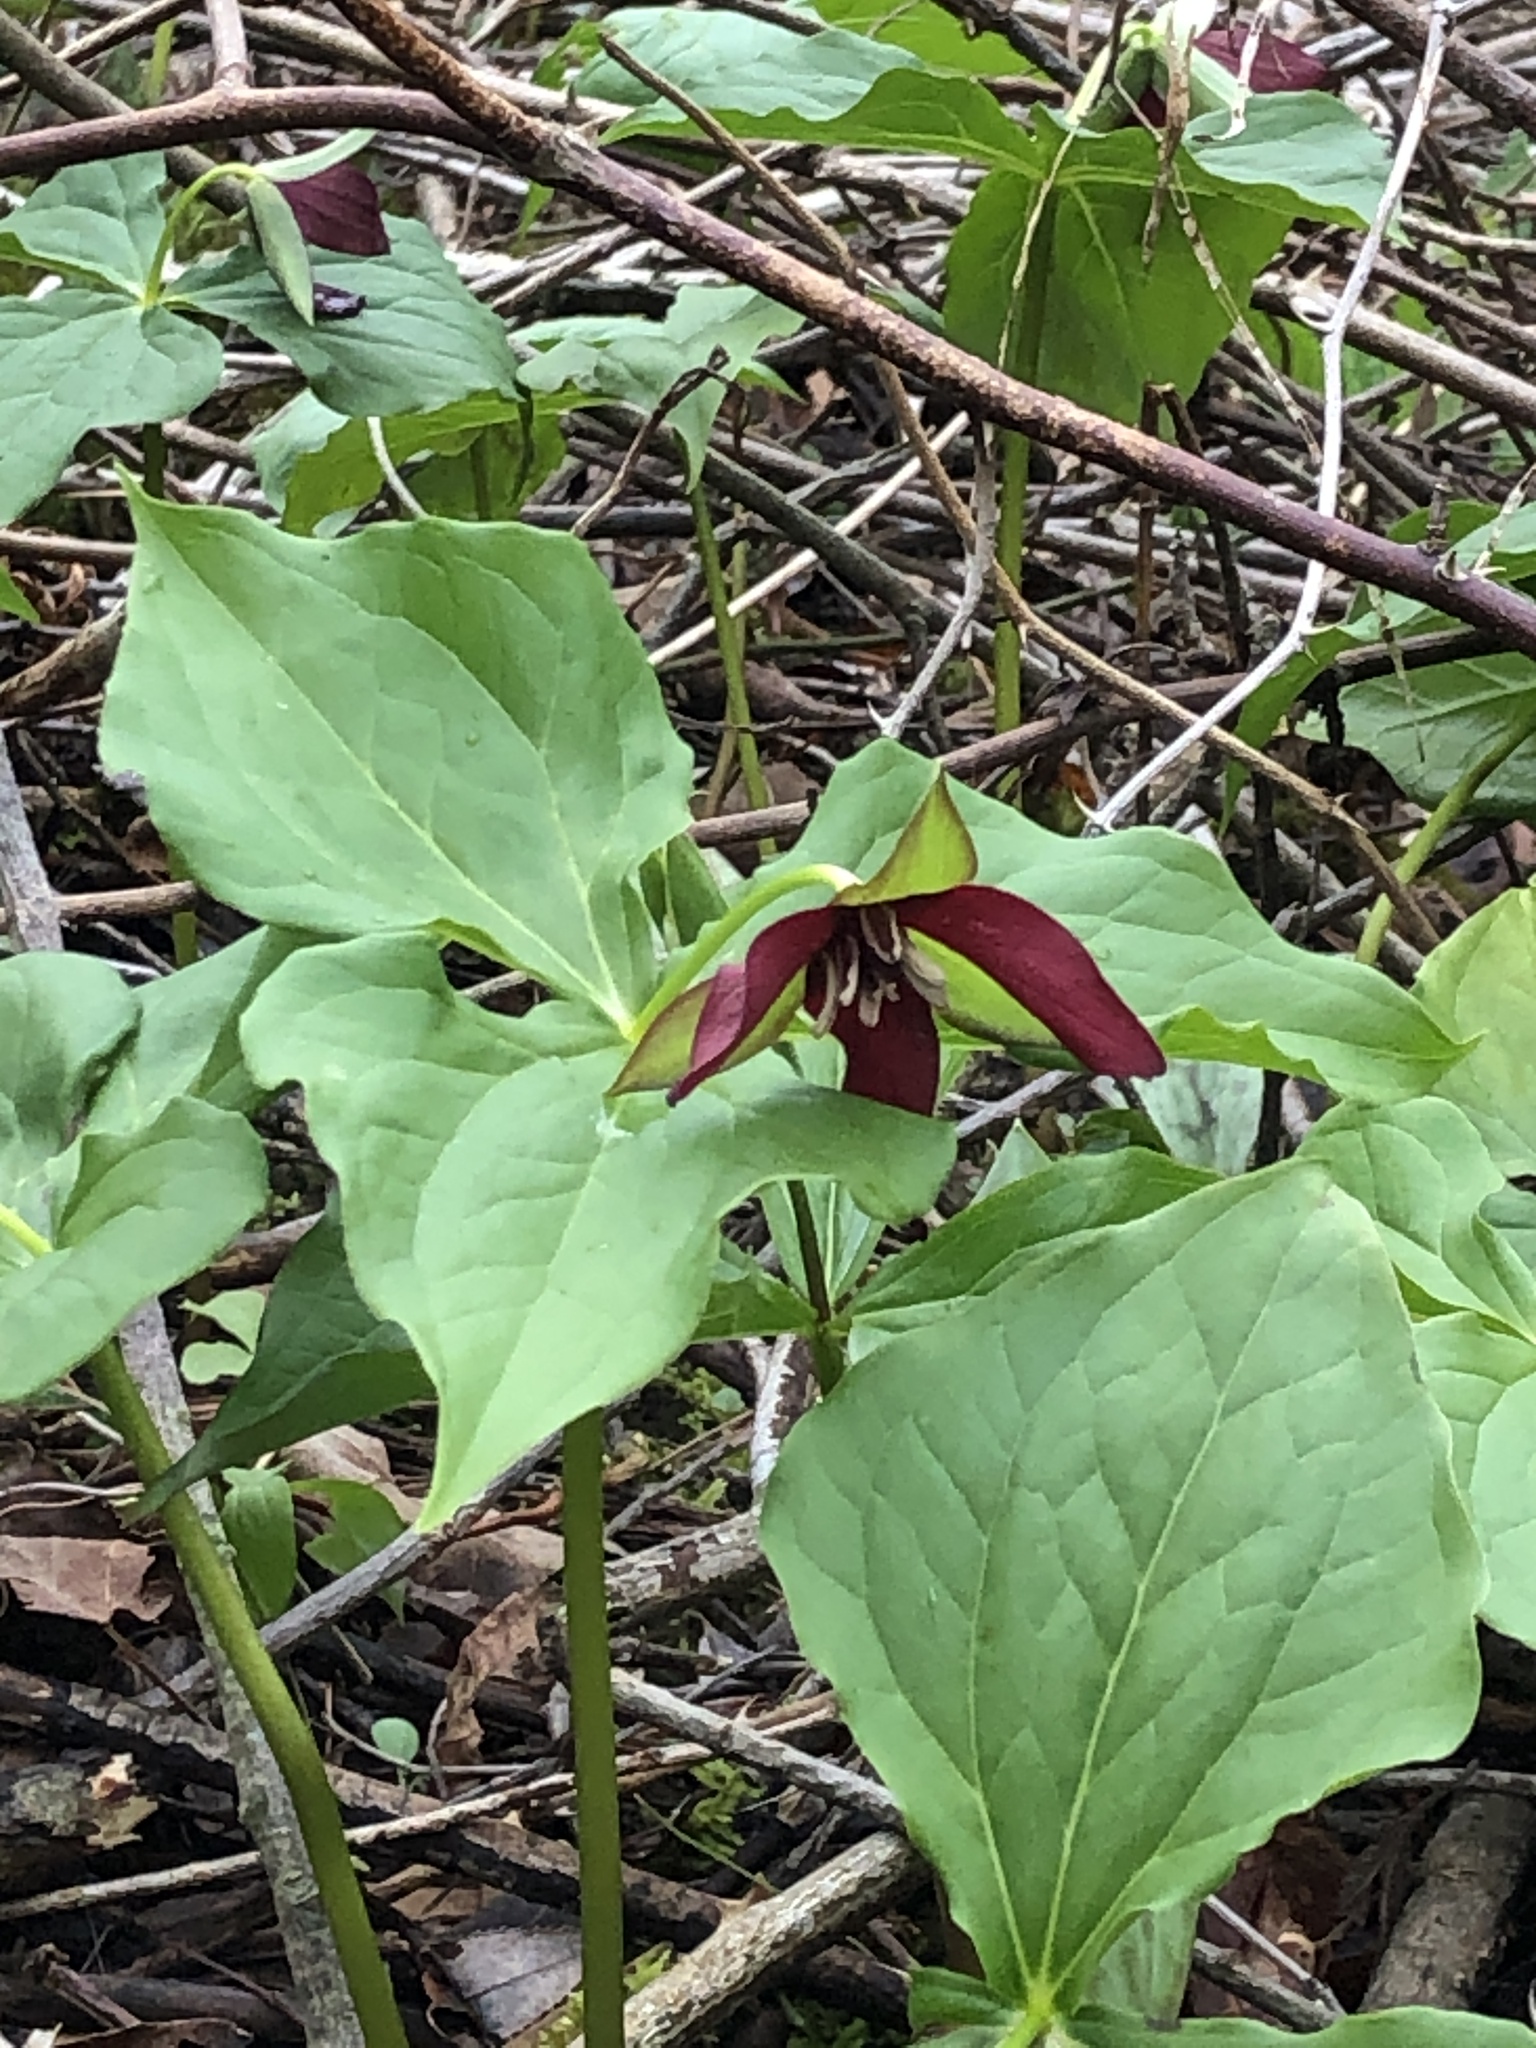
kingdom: Plantae
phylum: Tracheophyta
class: Liliopsida
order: Liliales
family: Melanthiaceae
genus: Trillium
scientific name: Trillium erectum
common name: Purple trillium
